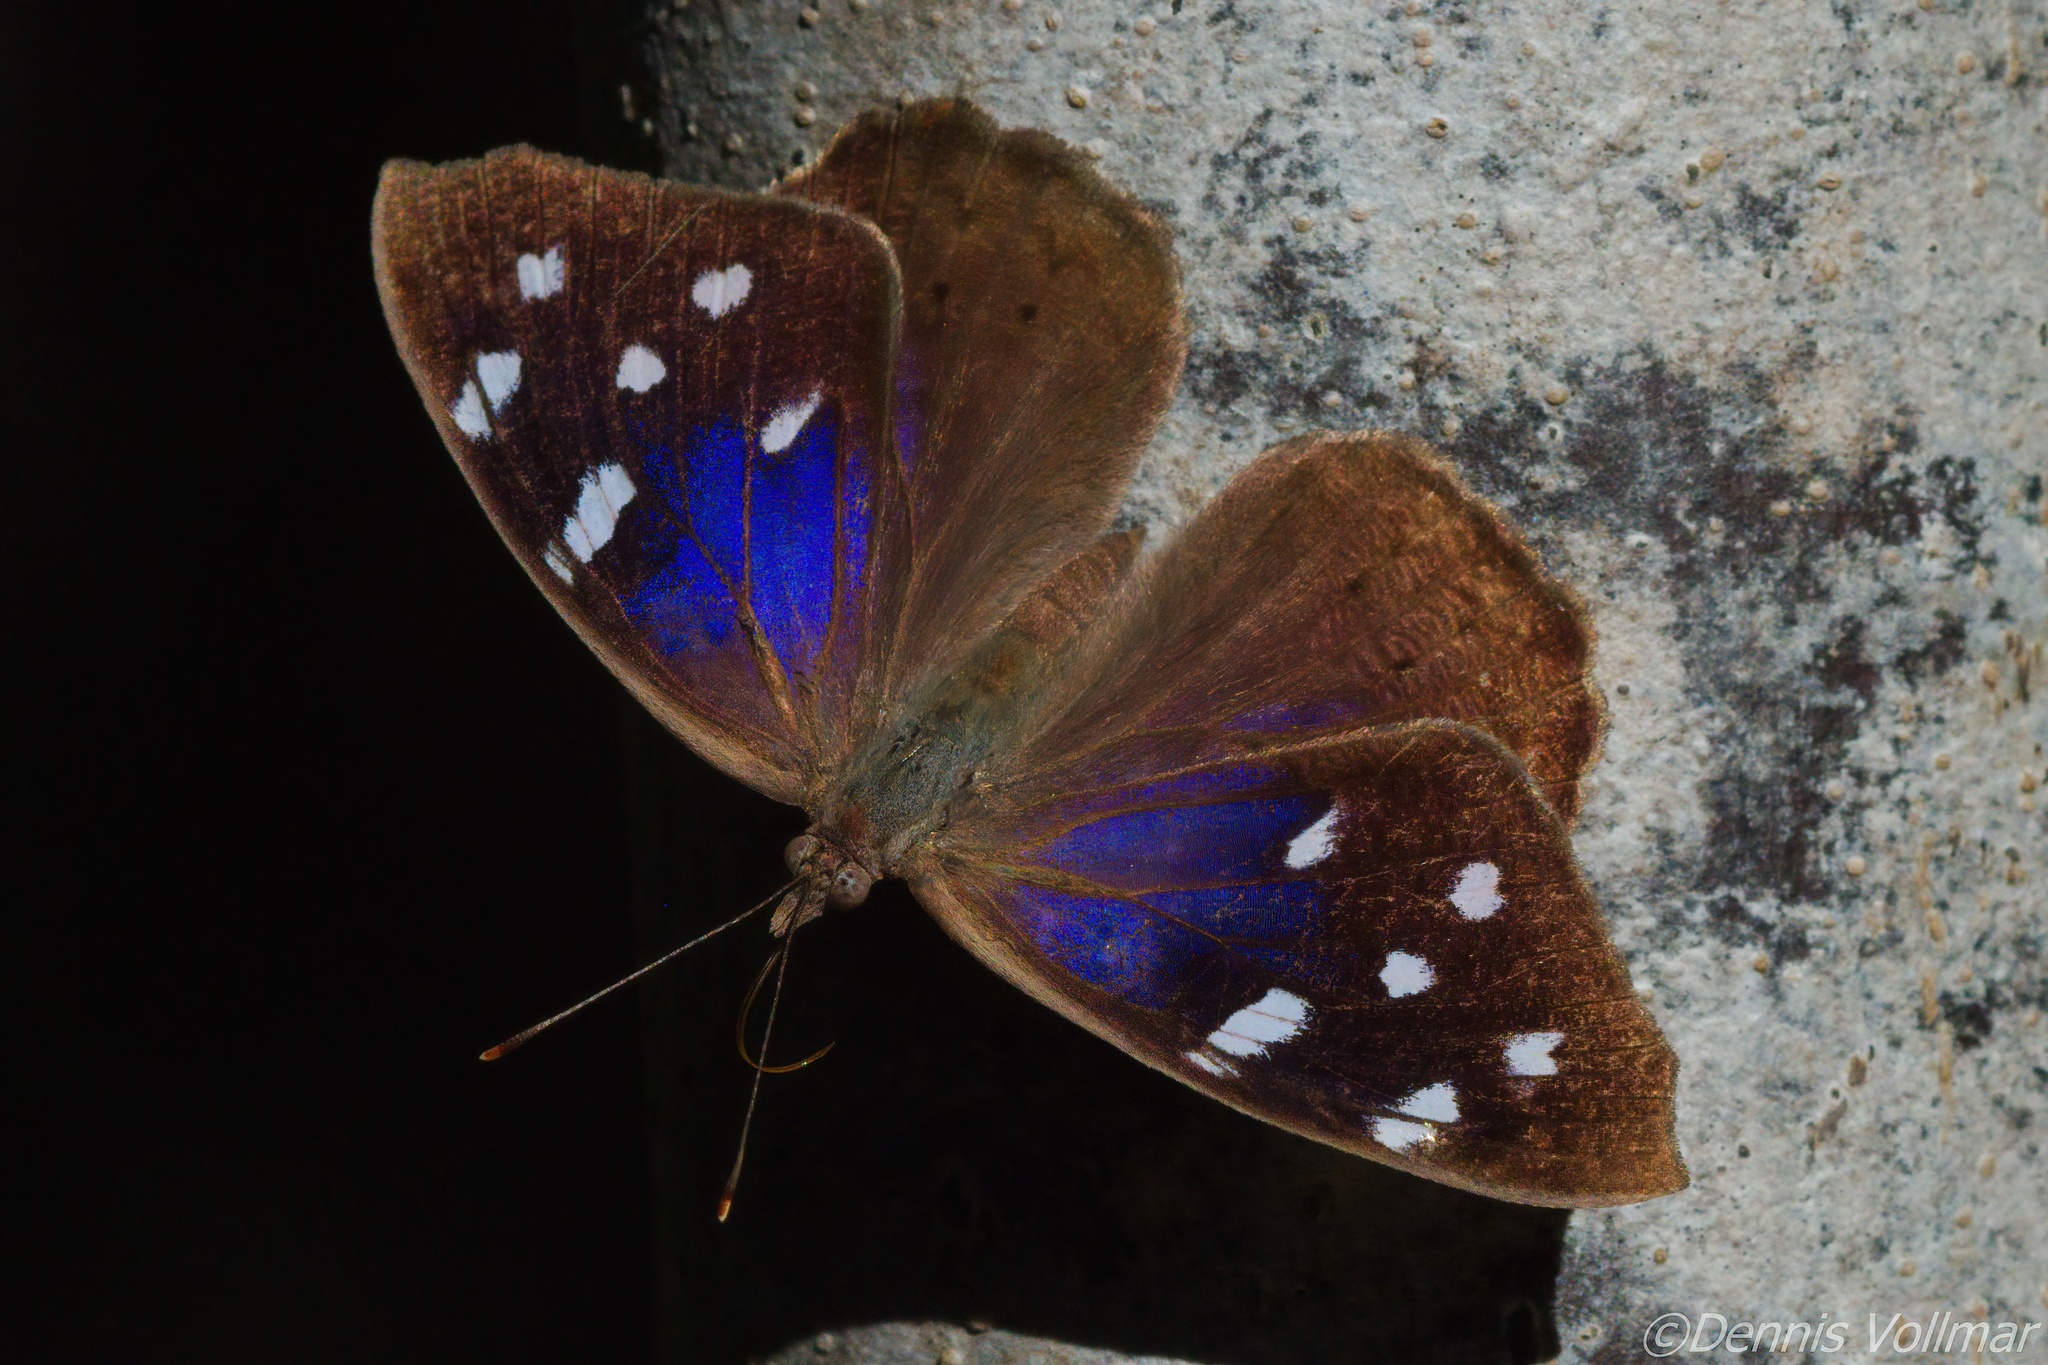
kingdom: Animalia
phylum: Arthropoda
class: Insecta
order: Lepidoptera
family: Nymphalidae
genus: Eunica
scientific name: Eunica tatila
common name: Florida purplewing
